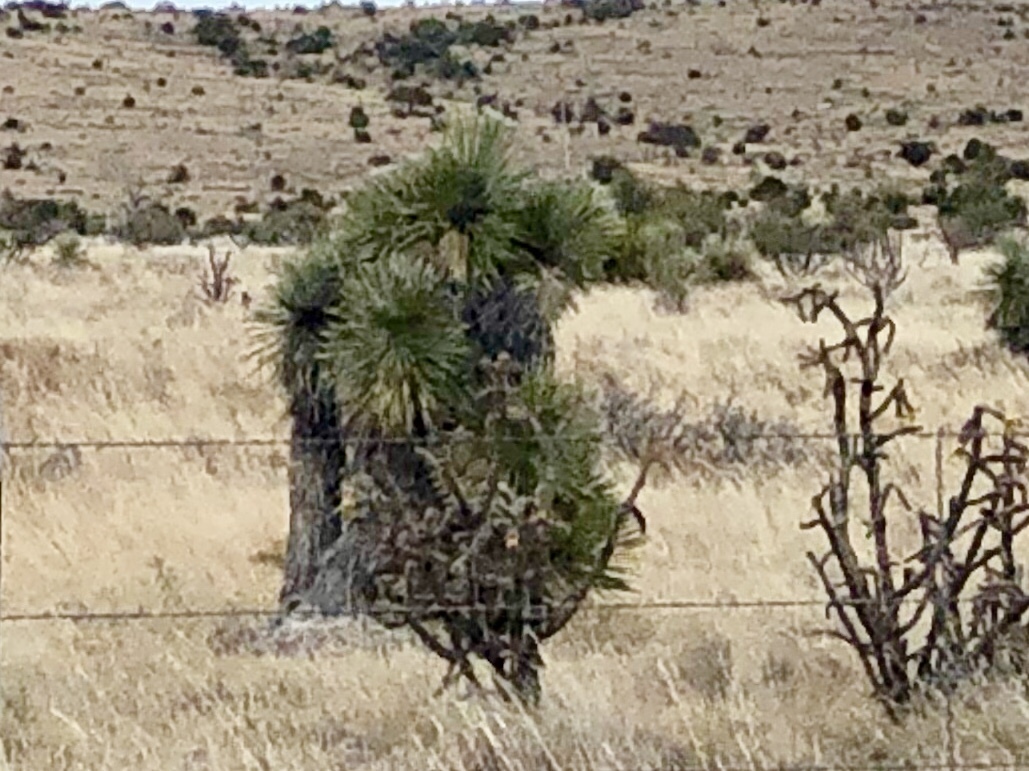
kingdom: Plantae
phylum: Tracheophyta
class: Liliopsida
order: Asparagales
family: Asparagaceae
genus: Yucca
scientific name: Yucca elata
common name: Palmella
